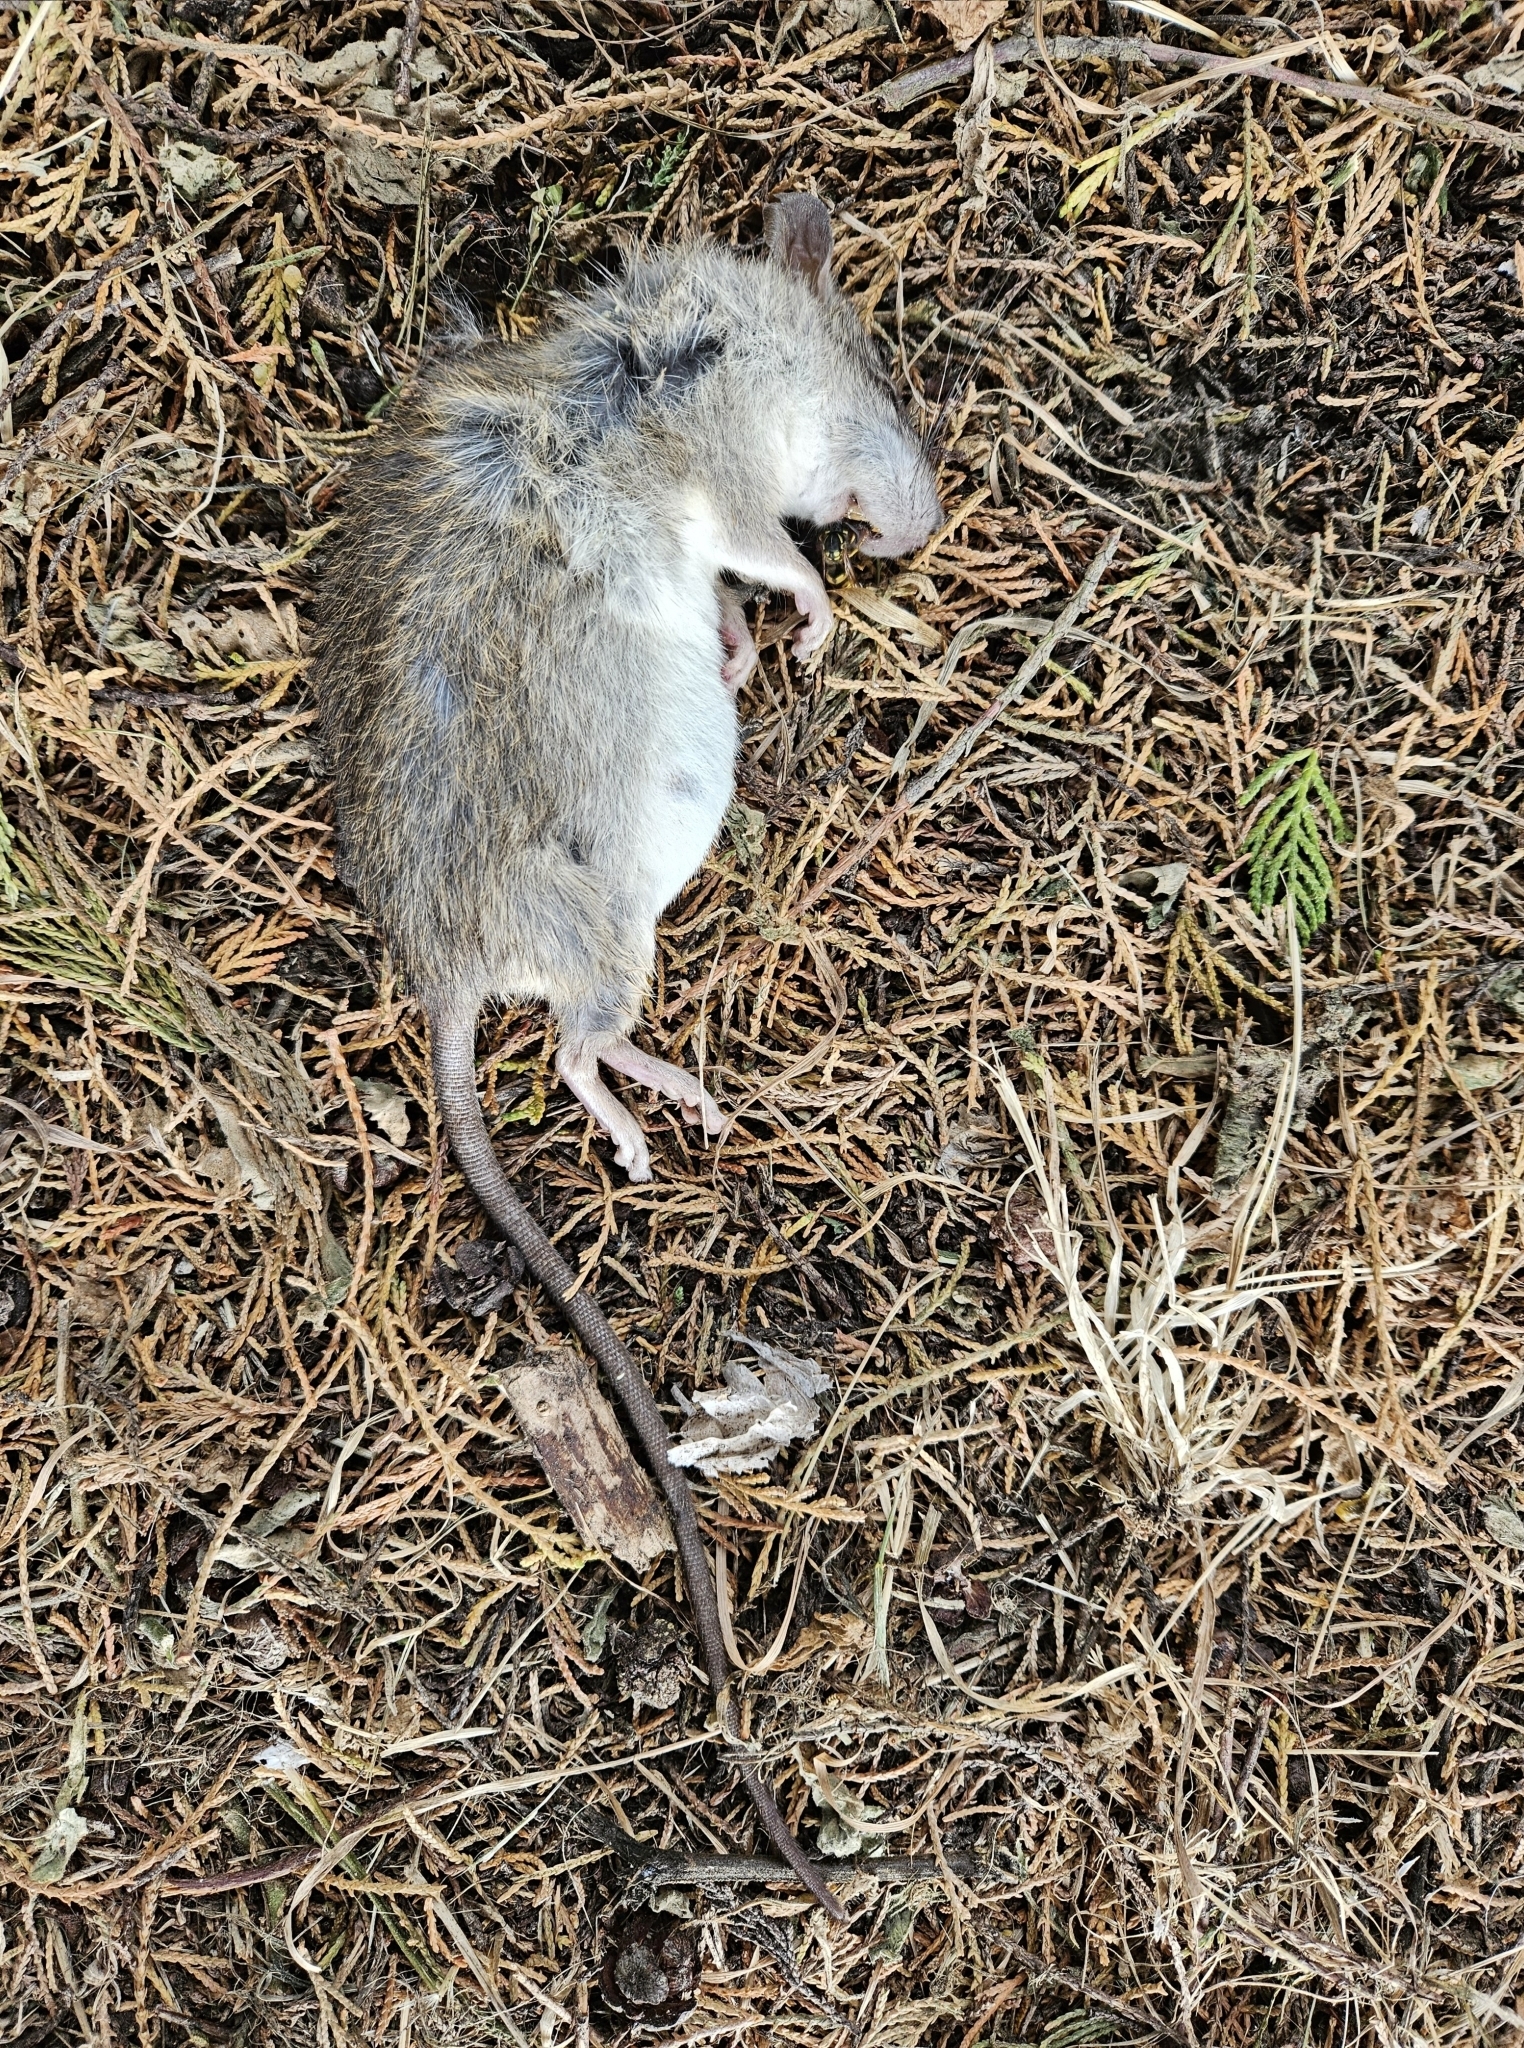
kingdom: Animalia
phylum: Chordata
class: Mammalia
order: Rodentia
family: Muridae
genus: Rattus
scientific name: Rattus rattus
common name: Black rat
